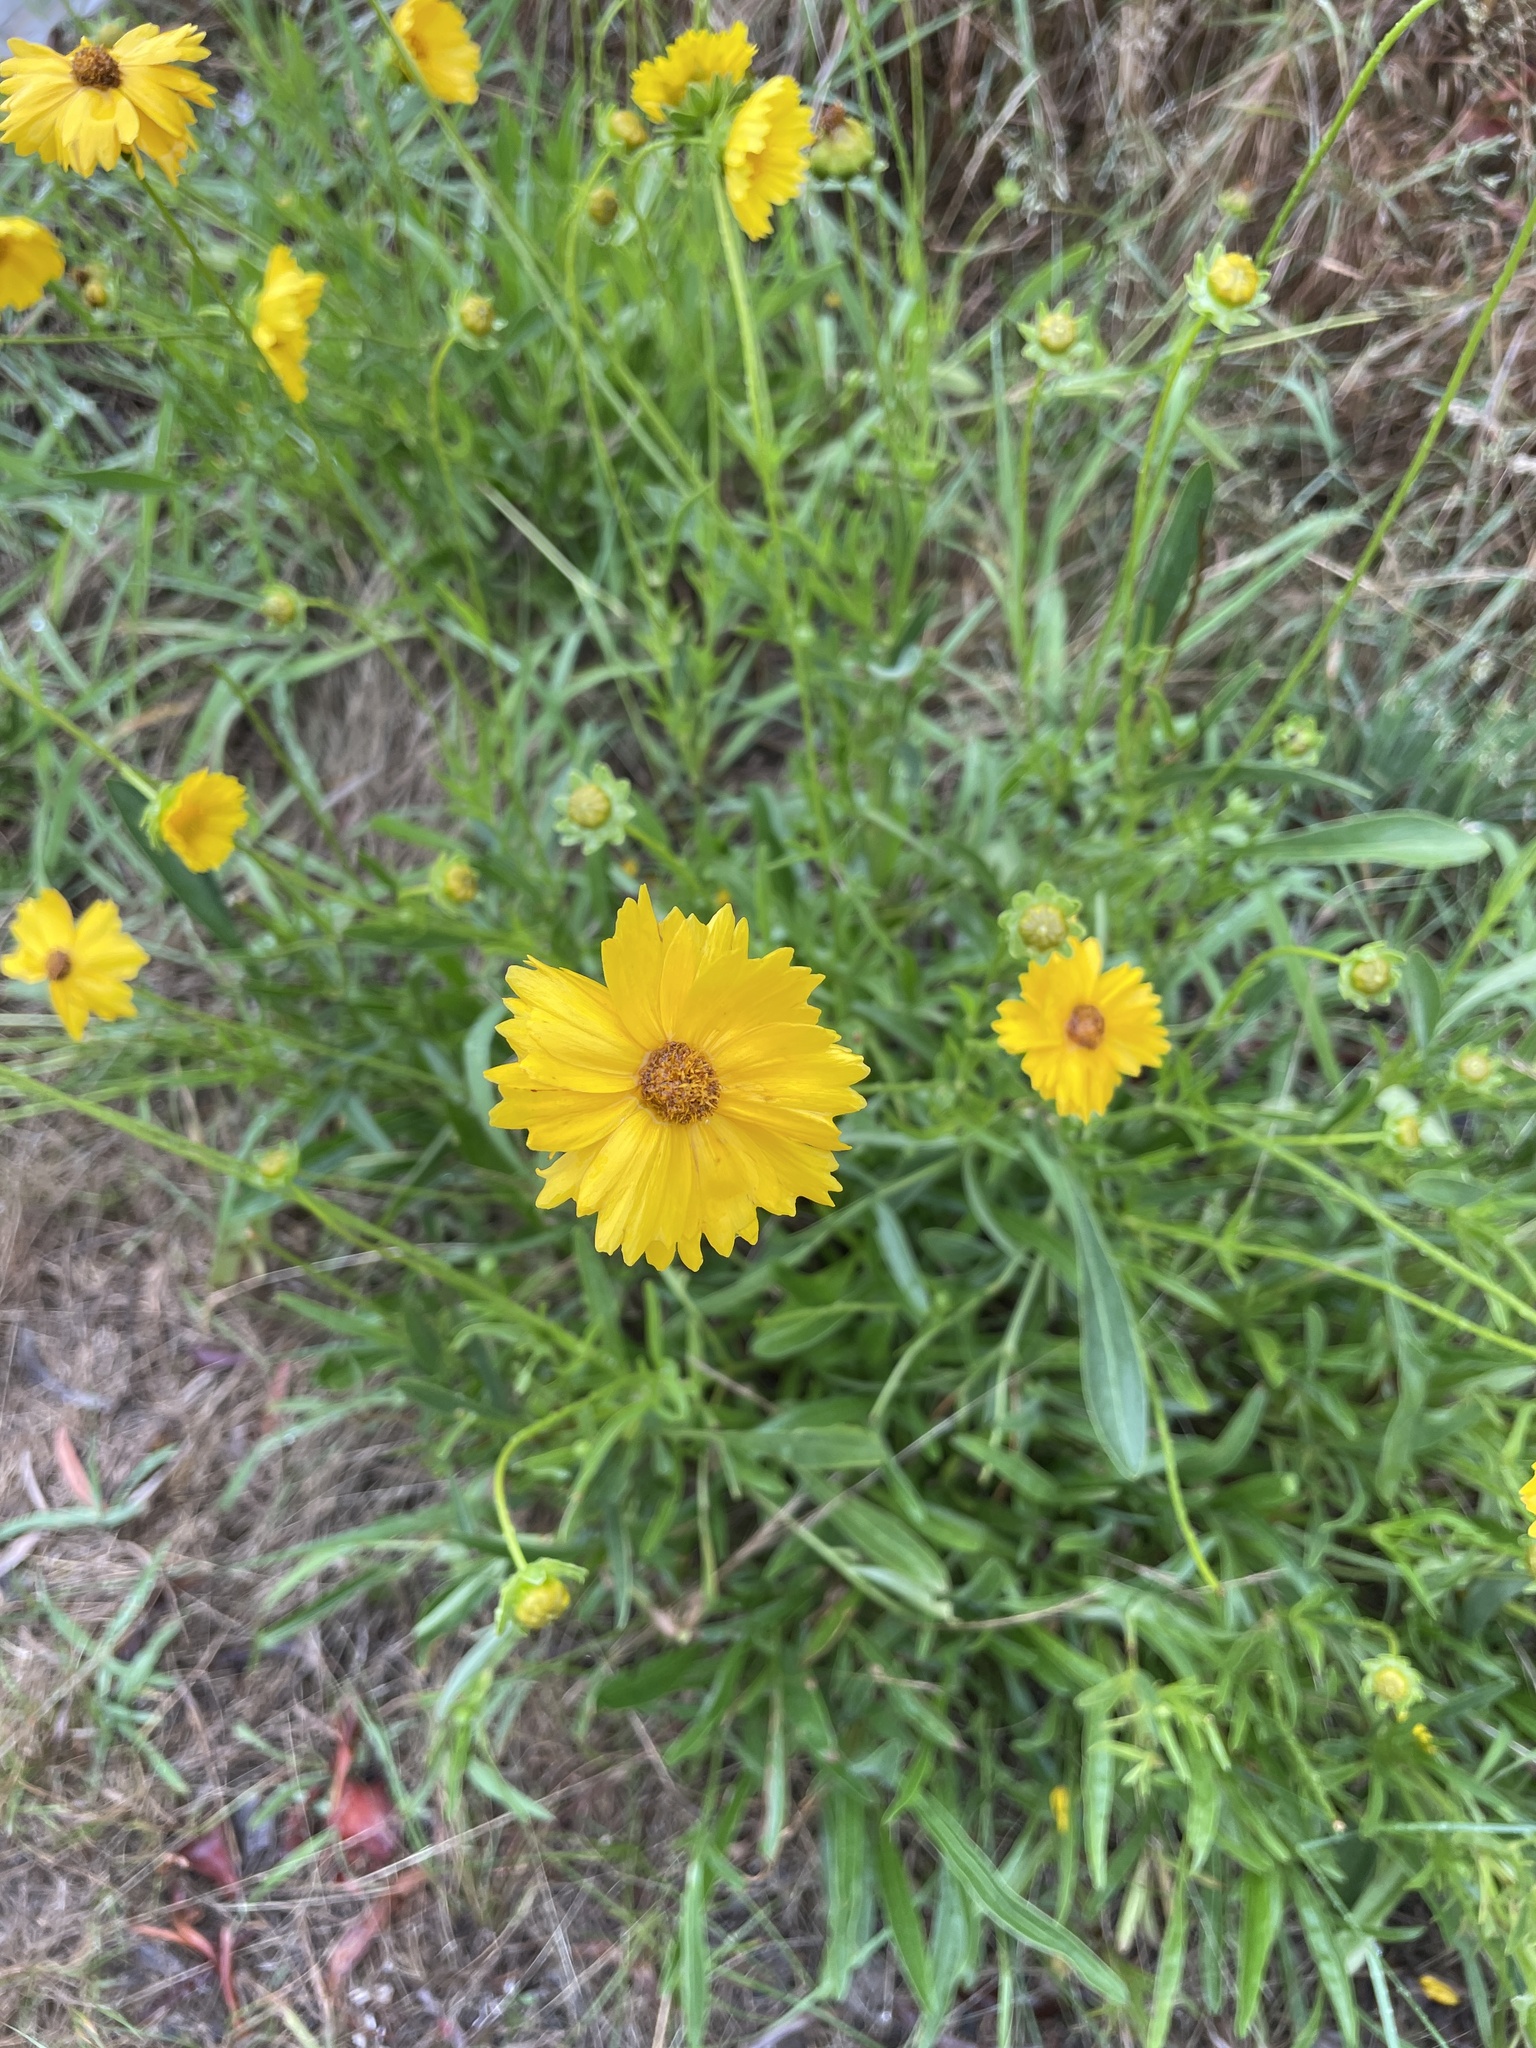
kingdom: Plantae
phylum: Tracheophyta
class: Magnoliopsida
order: Asterales
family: Asteraceae
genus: Coreopsis
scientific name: Coreopsis lanceolata
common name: Garden coreopsis
